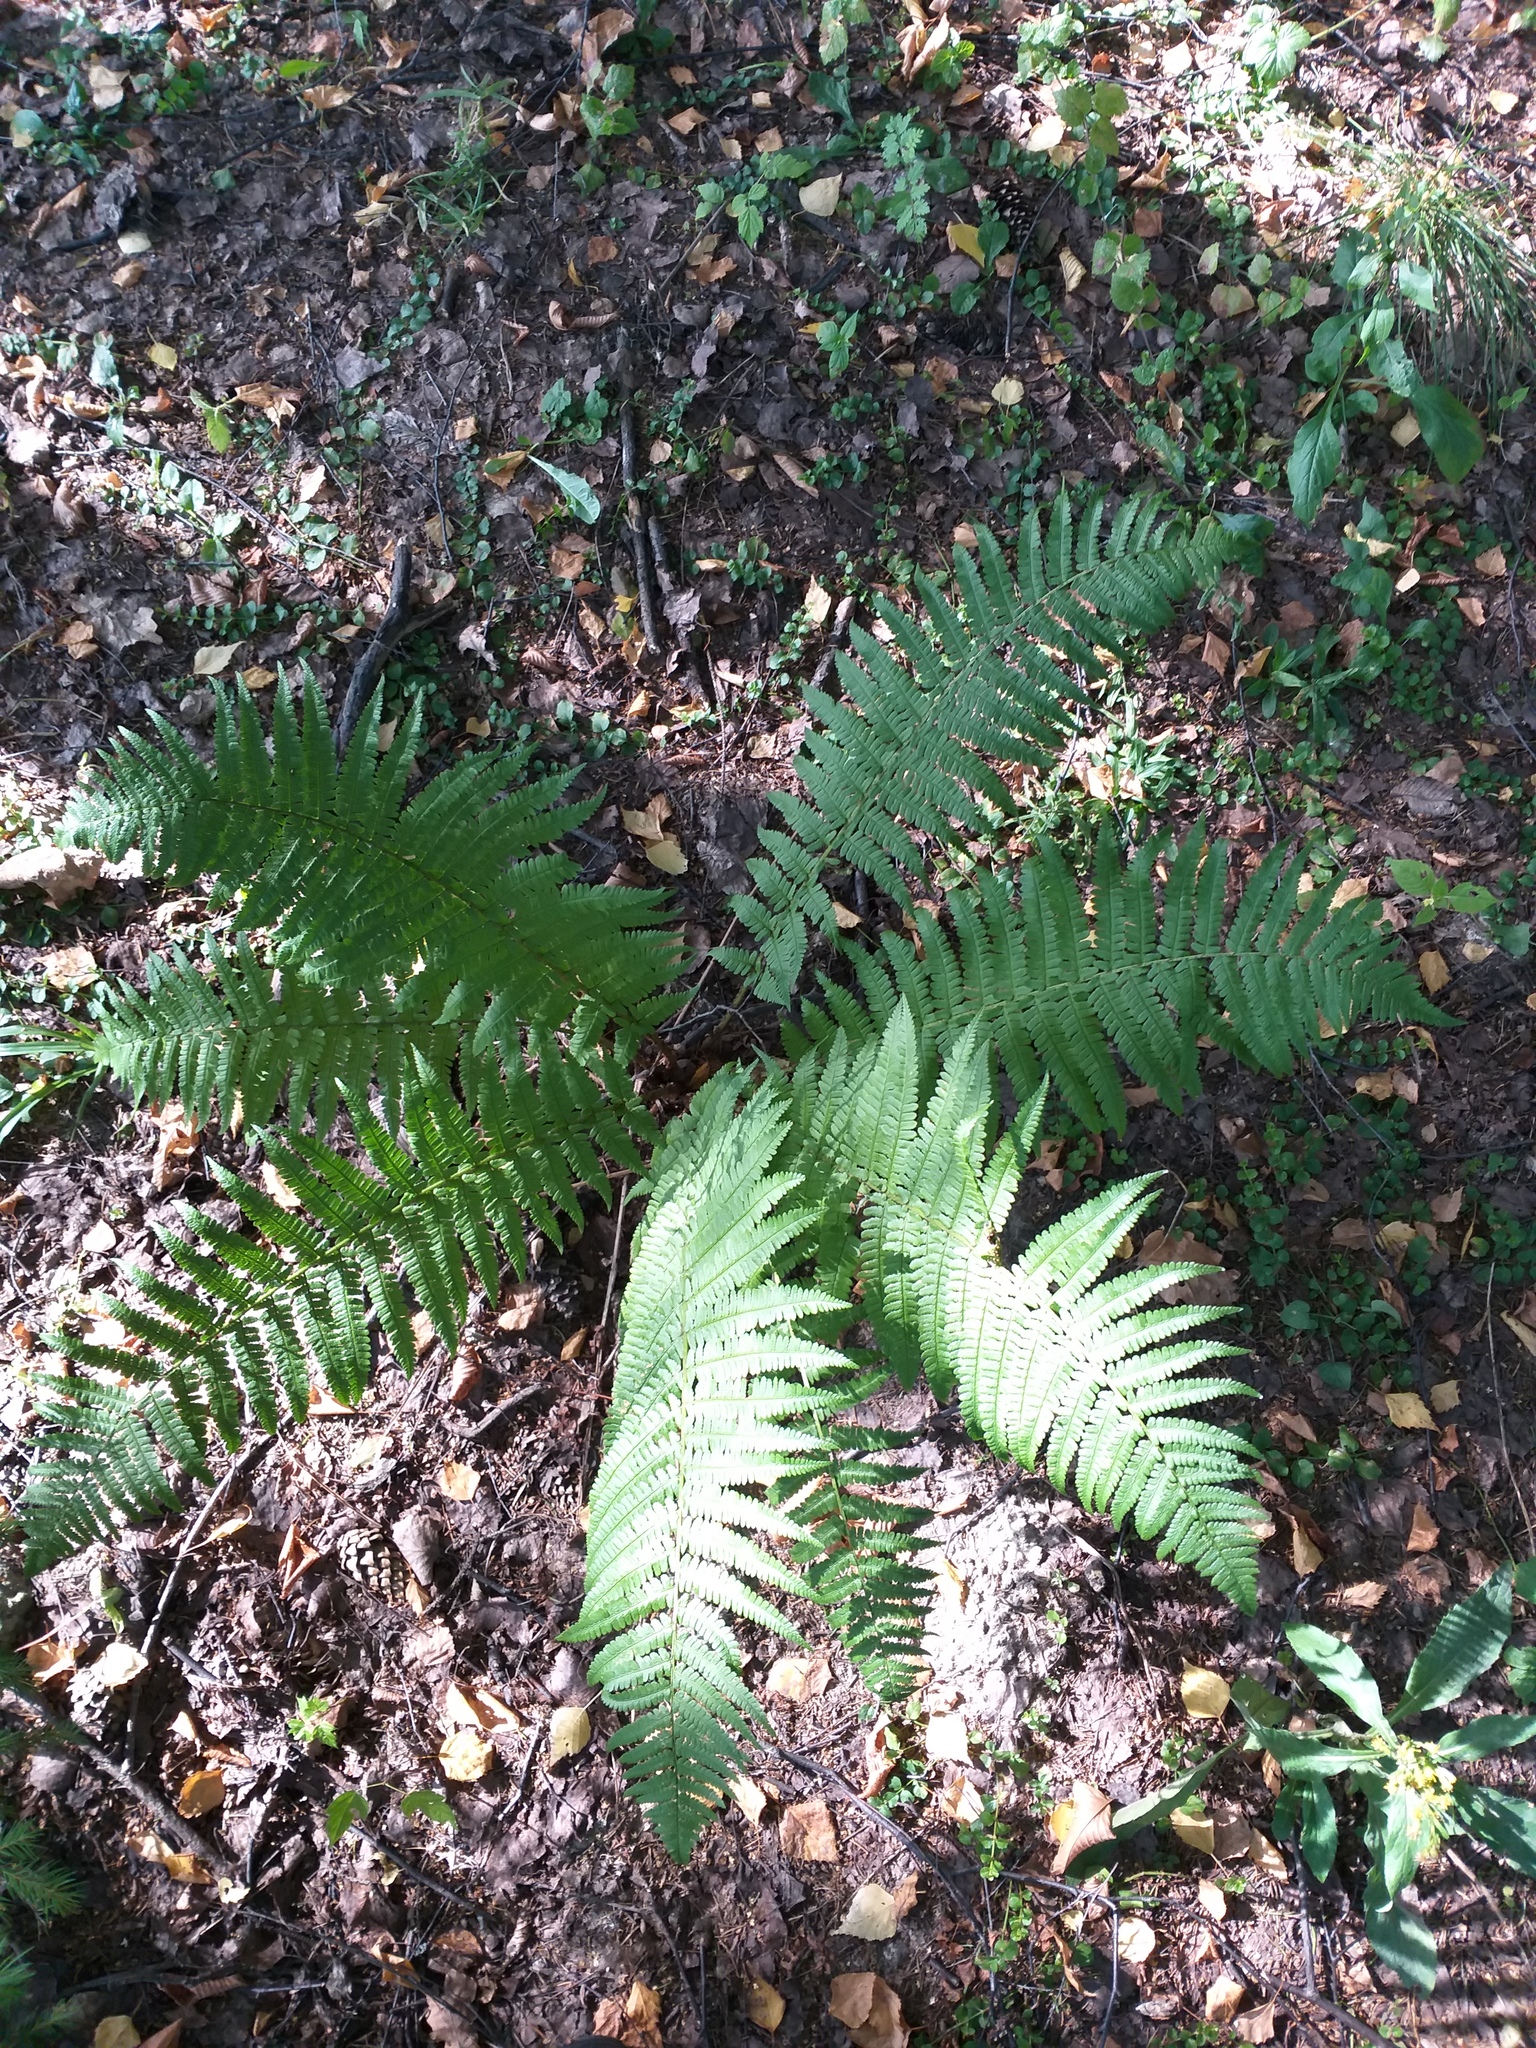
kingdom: Plantae
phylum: Tracheophyta
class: Polypodiopsida
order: Polypodiales
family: Dryopteridaceae
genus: Dryopteris
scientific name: Dryopteris filix-mas
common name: Male fern
